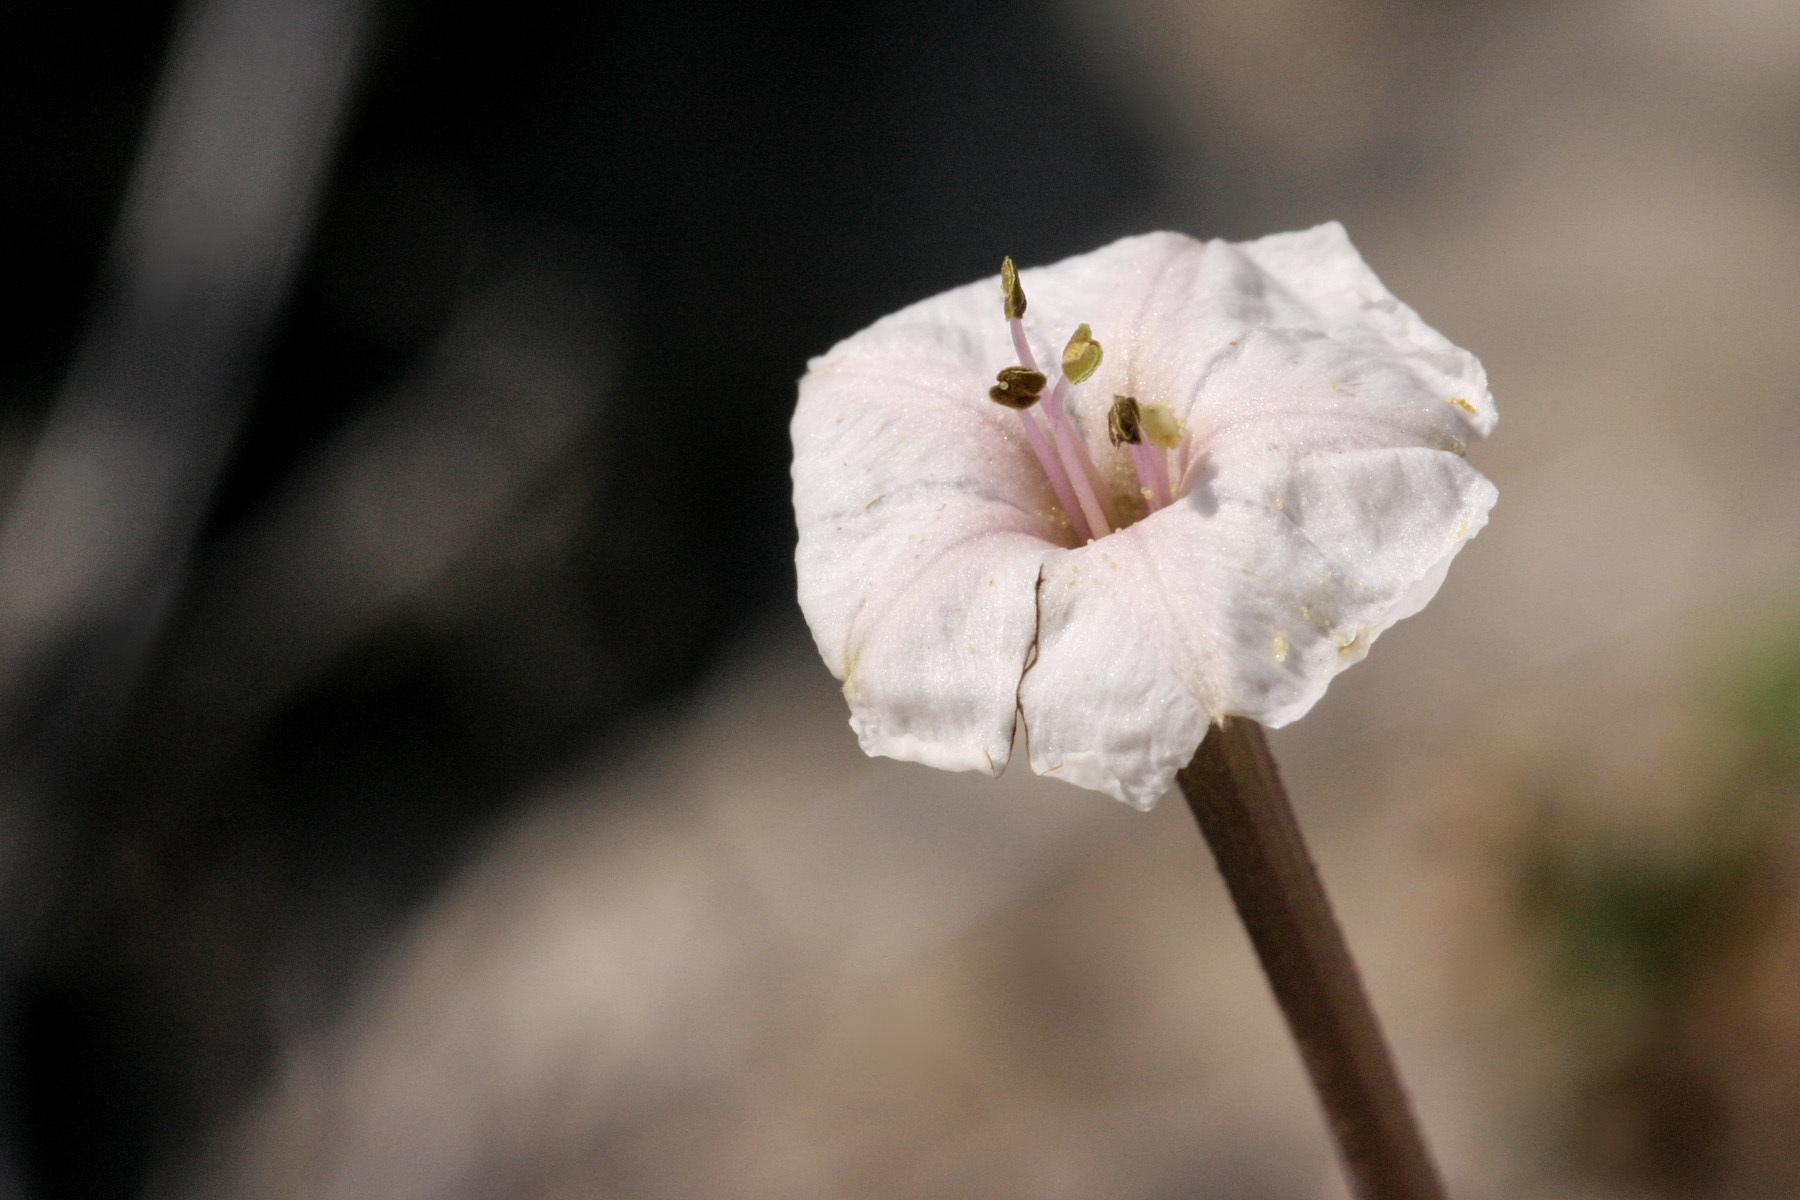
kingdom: Plantae
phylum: Tracheophyta
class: Magnoliopsida
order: Caryophyllales
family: Nyctaginaceae
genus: Acleisanthes
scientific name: Acleisanthes longiflora
